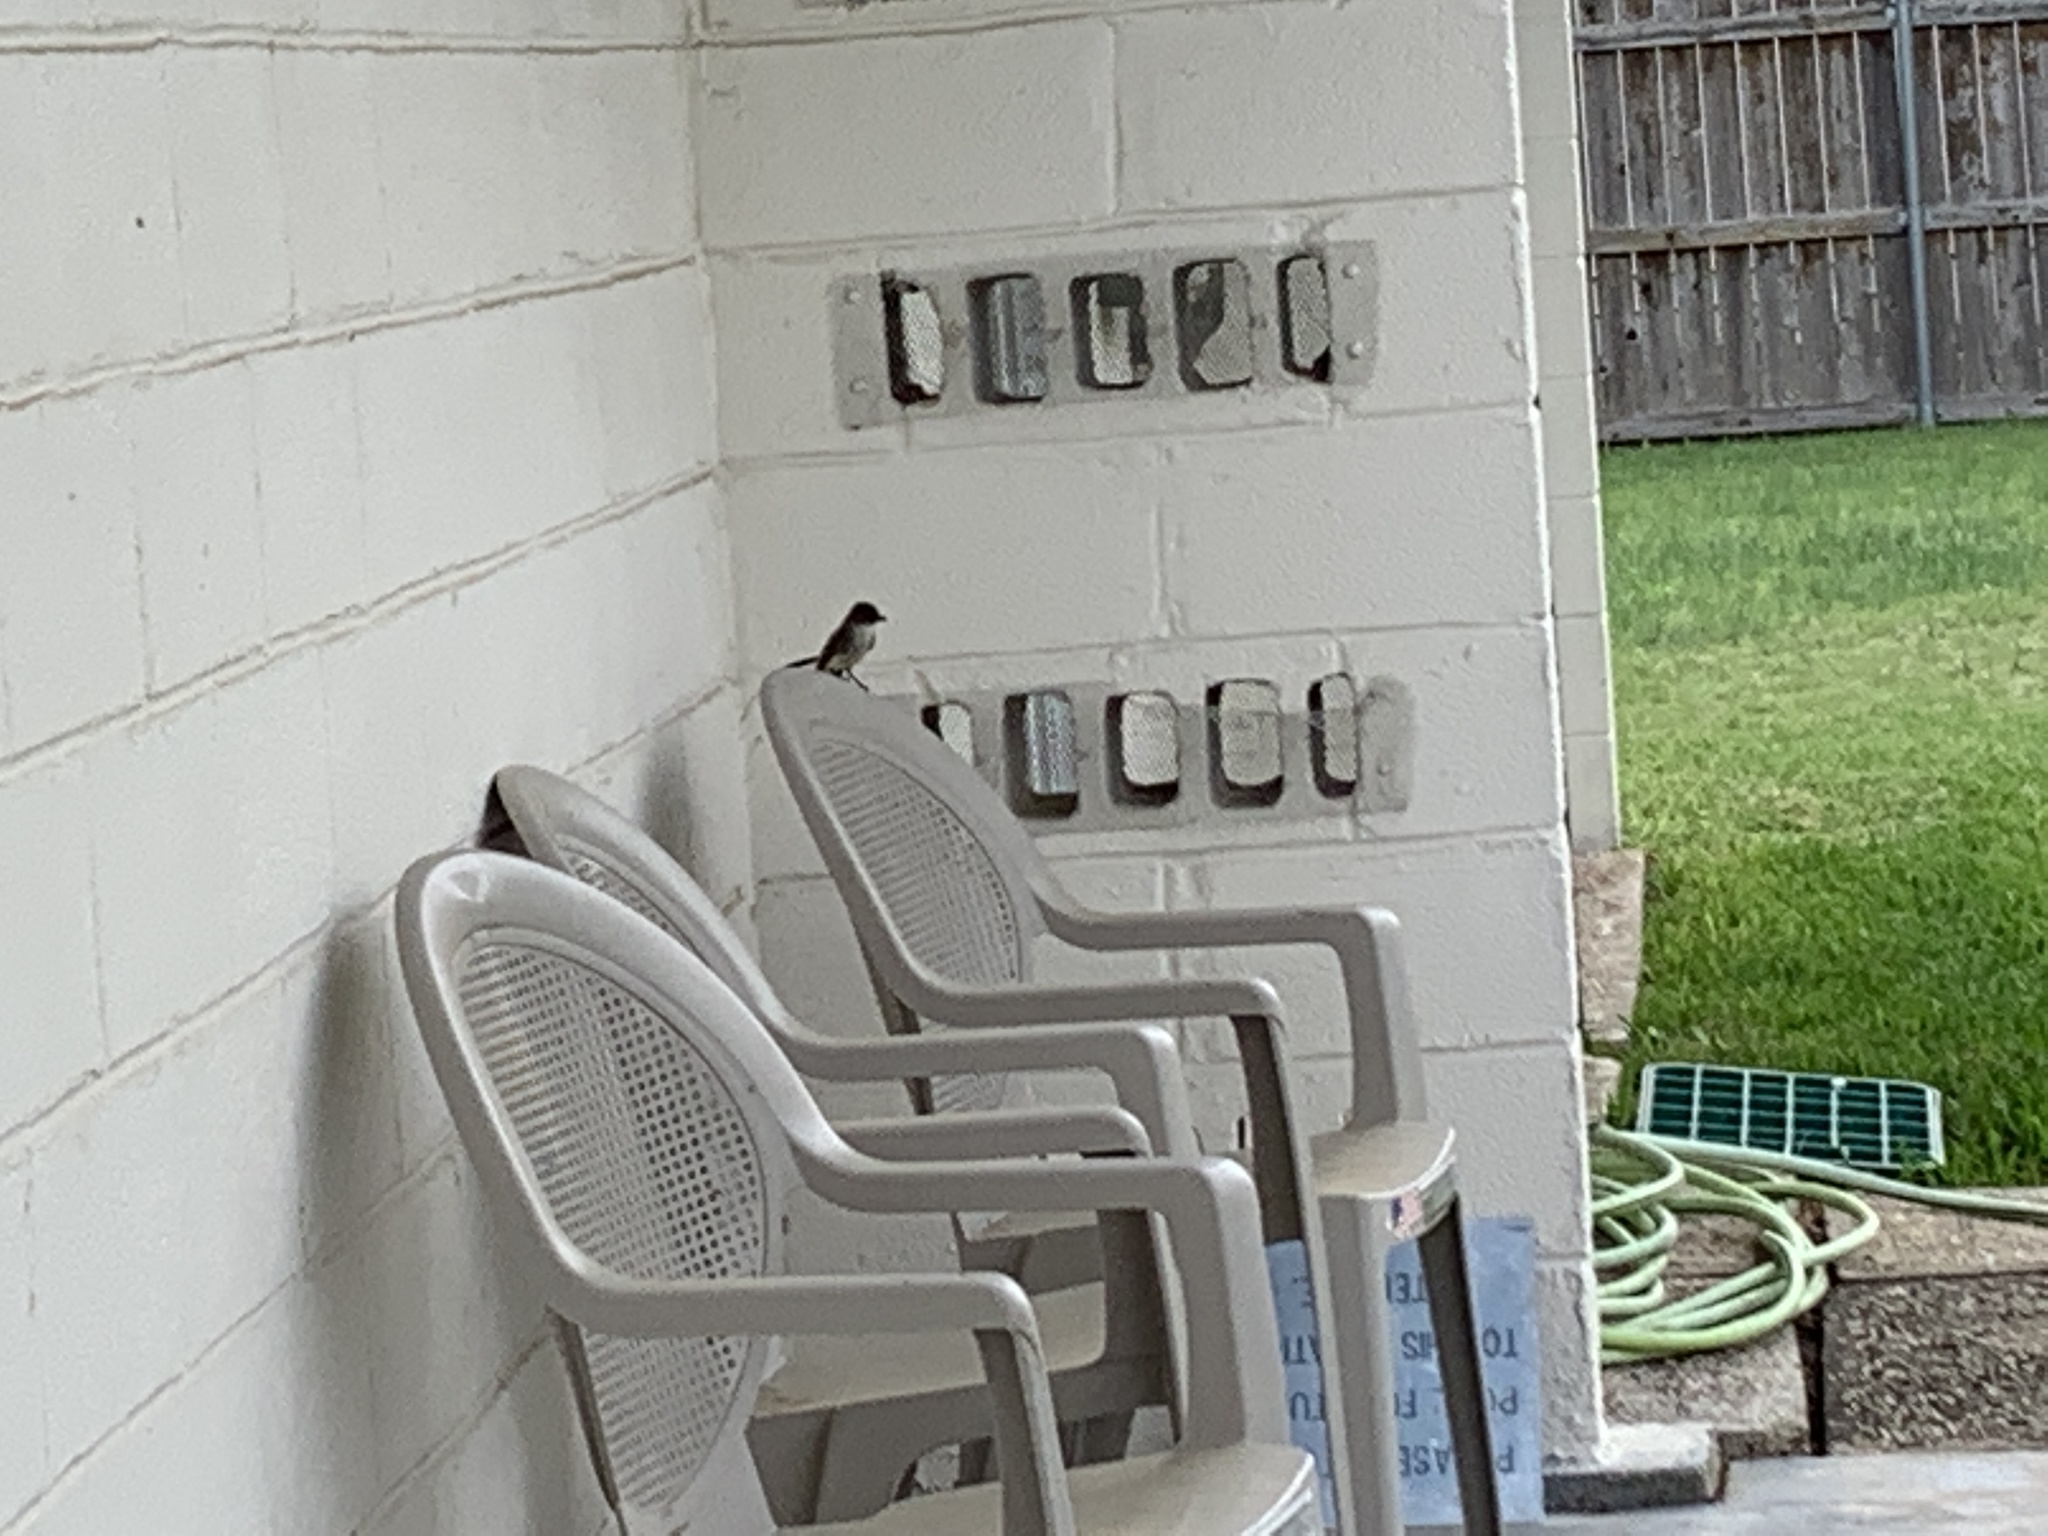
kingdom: Animalia
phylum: Chordata
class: Aves
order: Passeriformes
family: Tyrannidae
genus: Sayornis
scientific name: Sayornis phoebe
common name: Eastern phoebe
